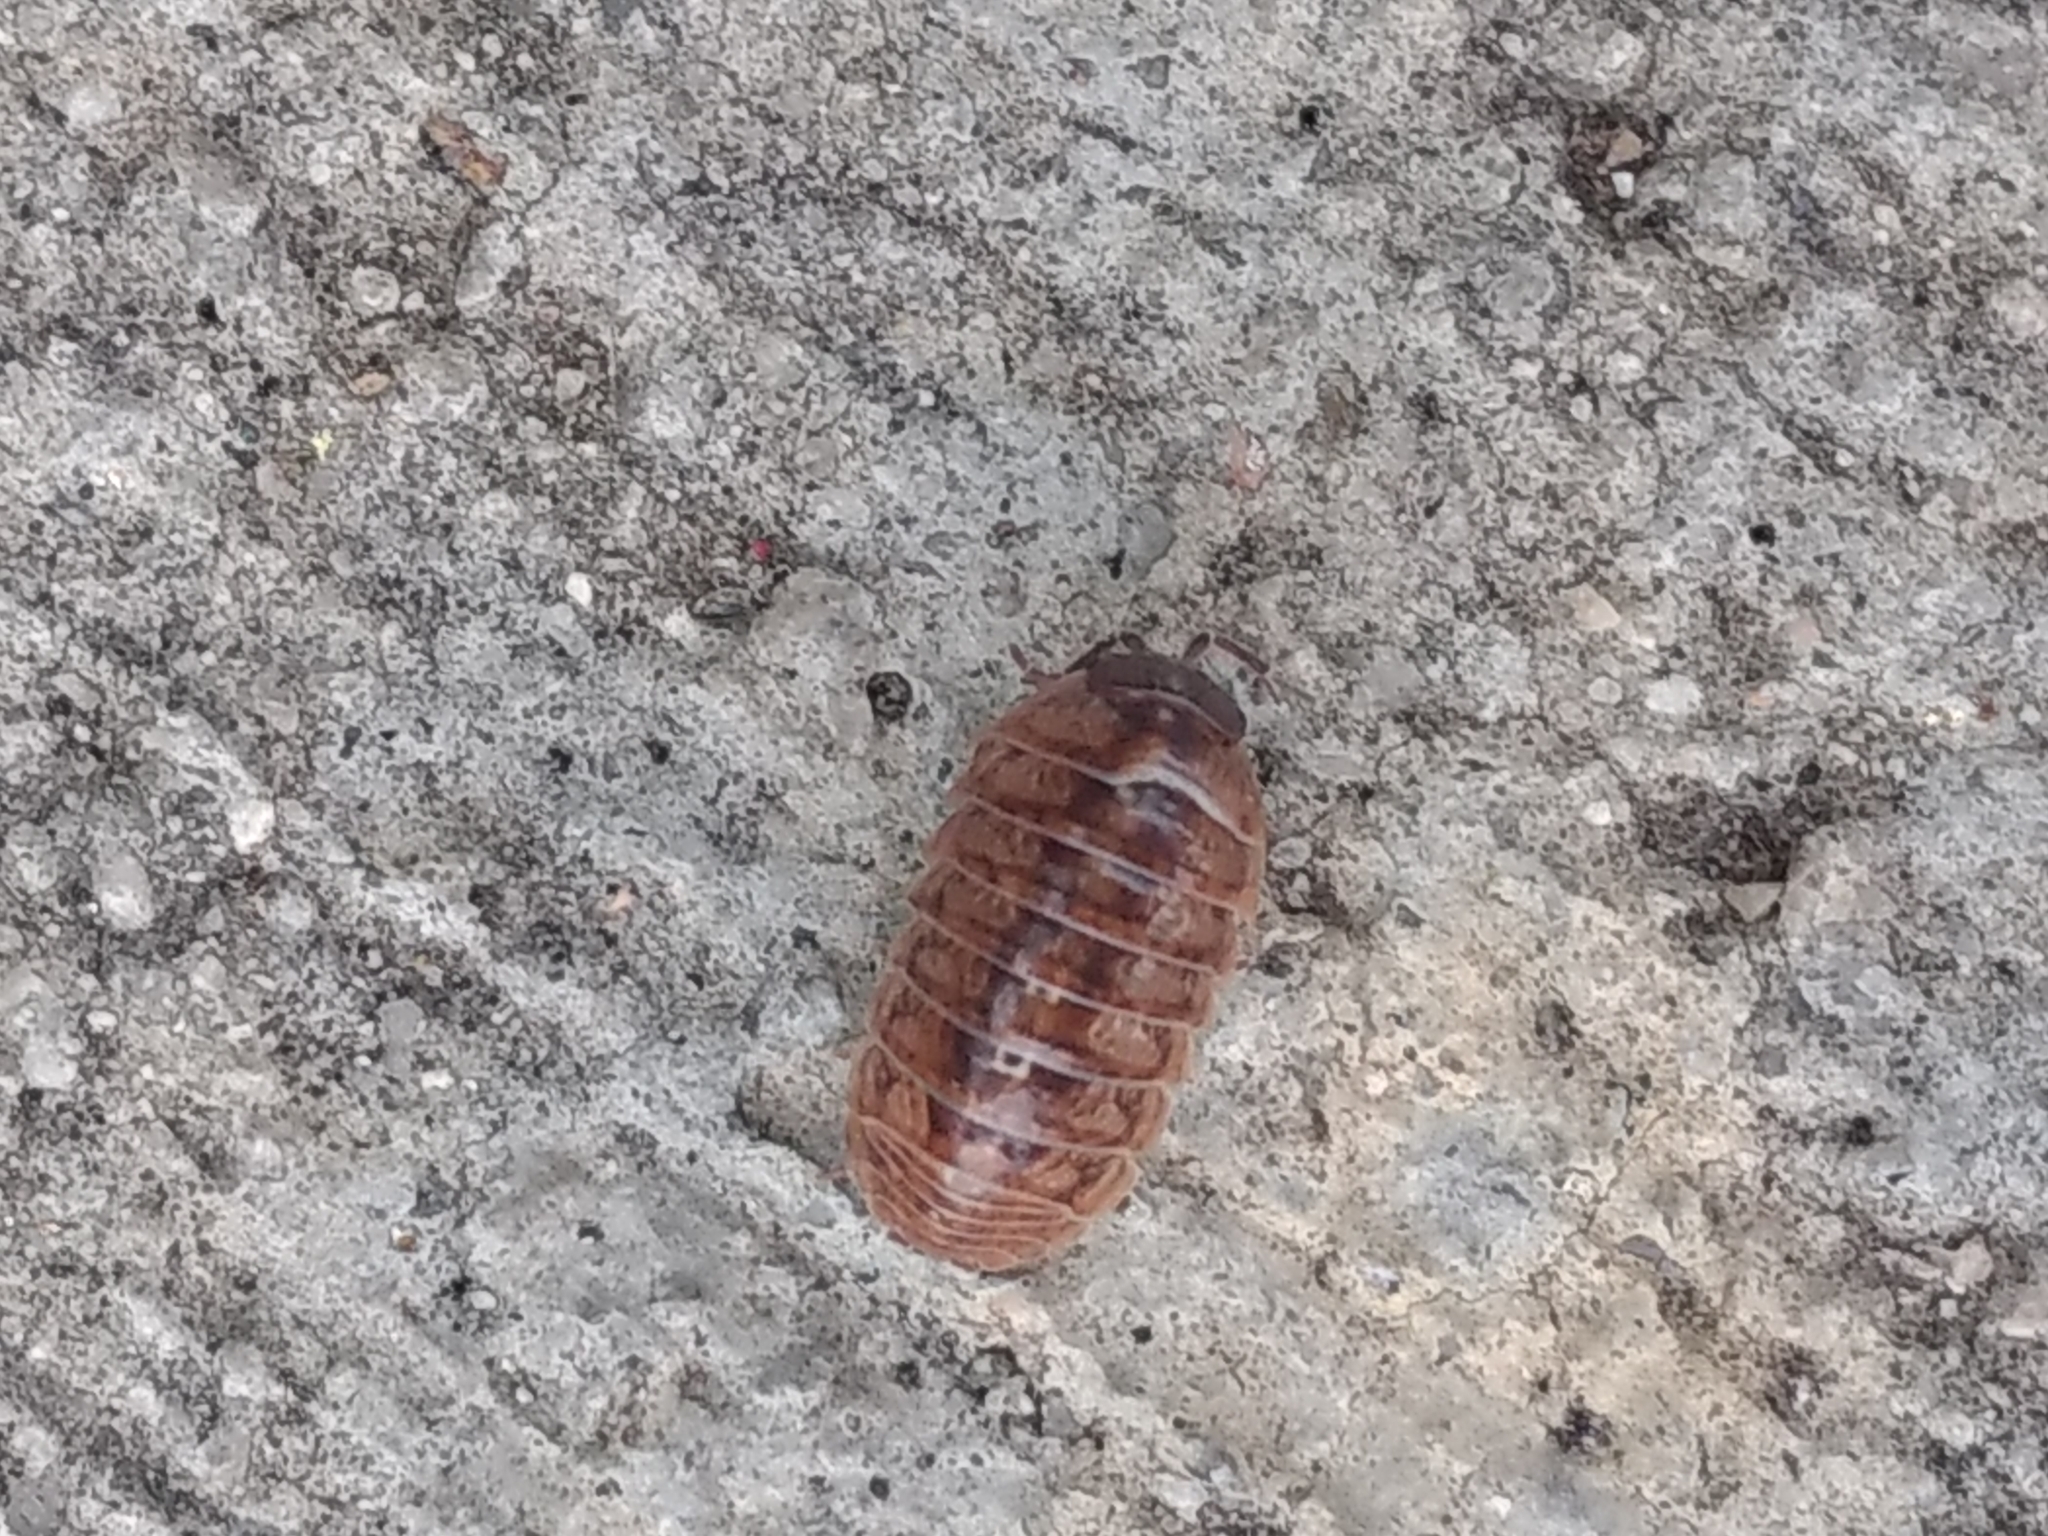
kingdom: Animalia
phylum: Arthropoda
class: Malacostraca
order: Isopoda
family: Armadillidiidae
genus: Armadillidium
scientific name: Armadillidium vulgare
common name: Common pill woodlouse
